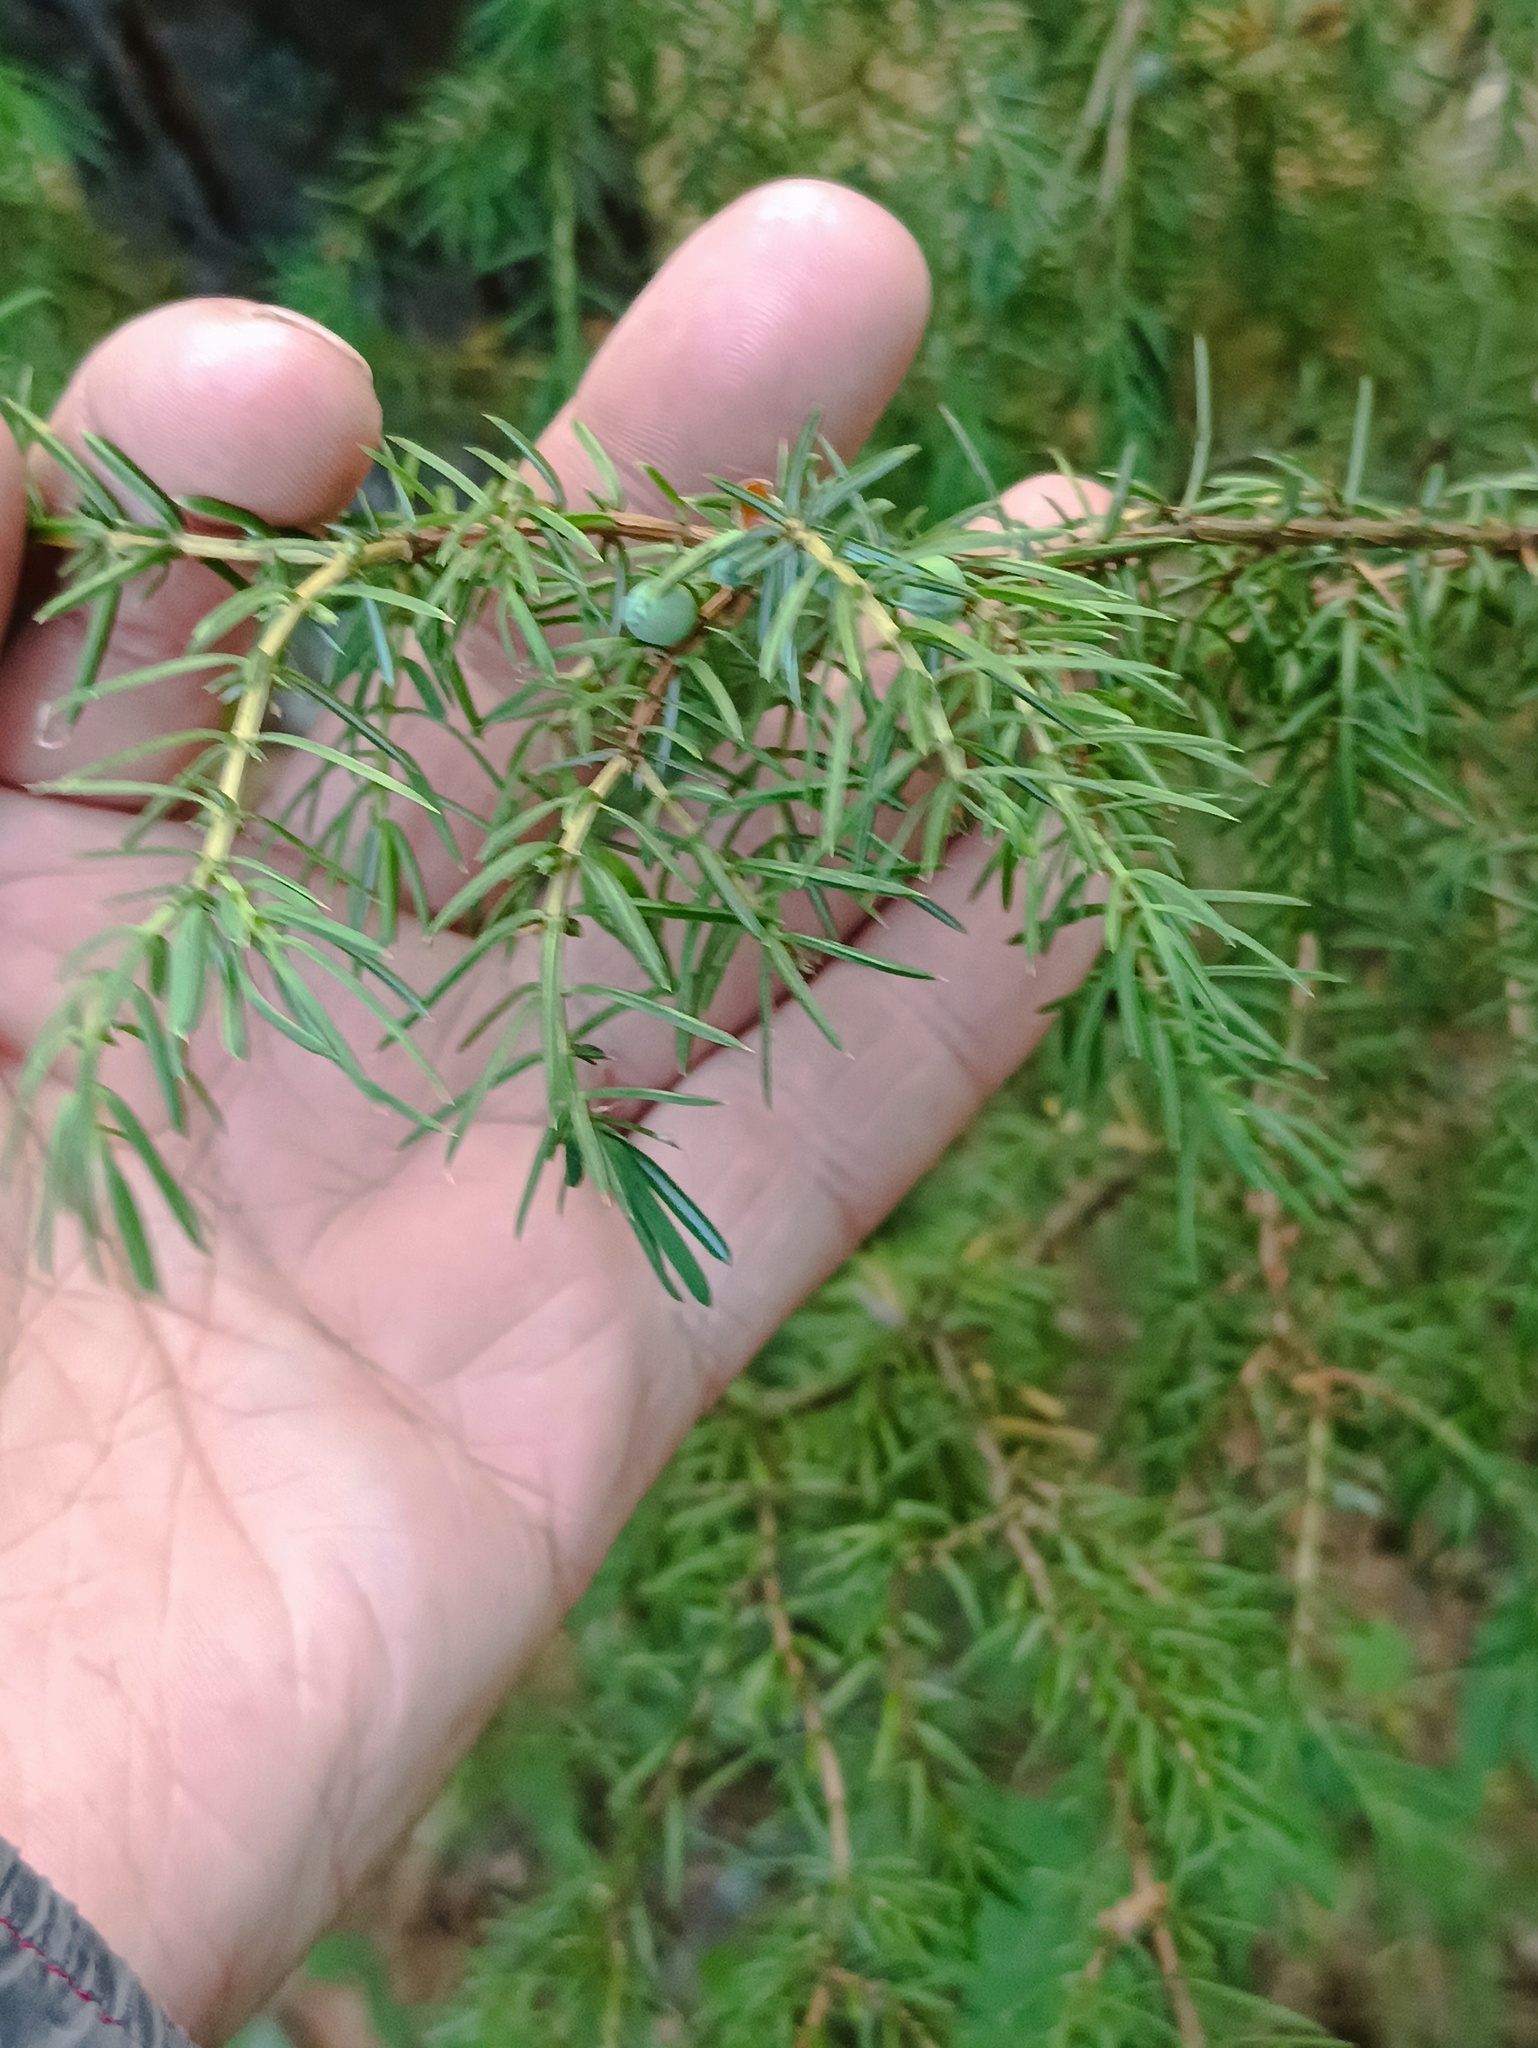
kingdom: Plantae
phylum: Tracheophyta
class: Pinopsida
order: Pinales
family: Cupressaceae
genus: Juniperus
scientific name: Juniperus communis
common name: Common juniper
